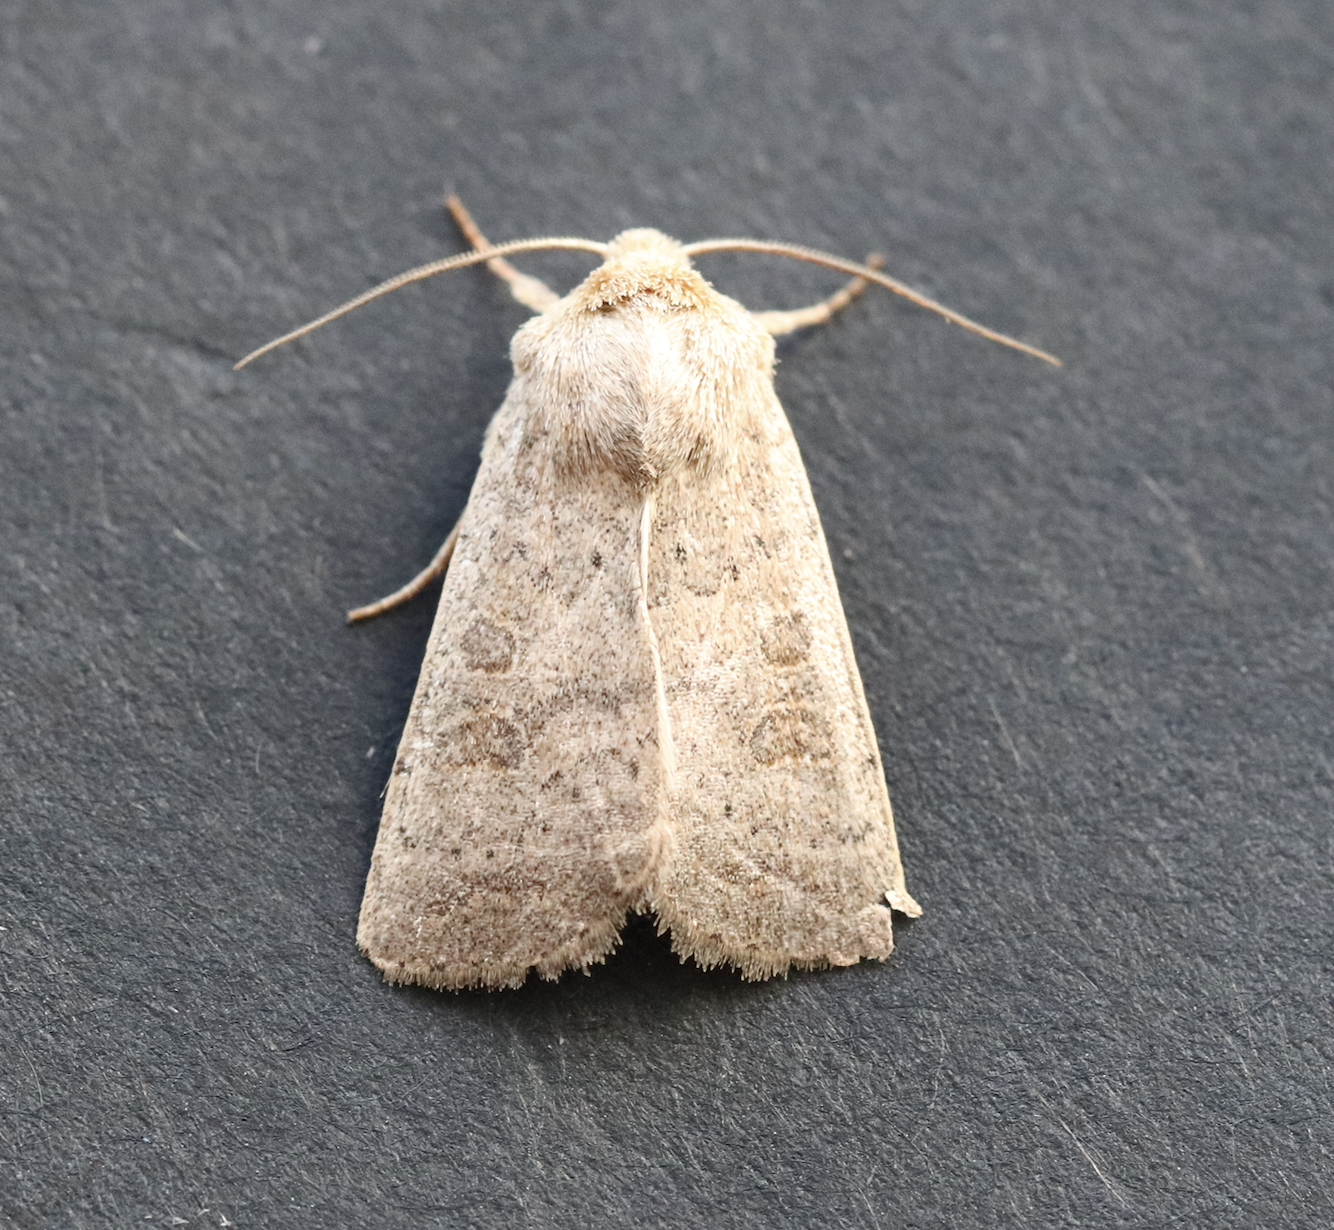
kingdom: Animalia
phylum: Arthropoda
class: Insecta
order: Lepidoptera
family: Noctuidae
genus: Hoplodrina
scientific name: Hoplodrina ambigua
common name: Vine's rustic
